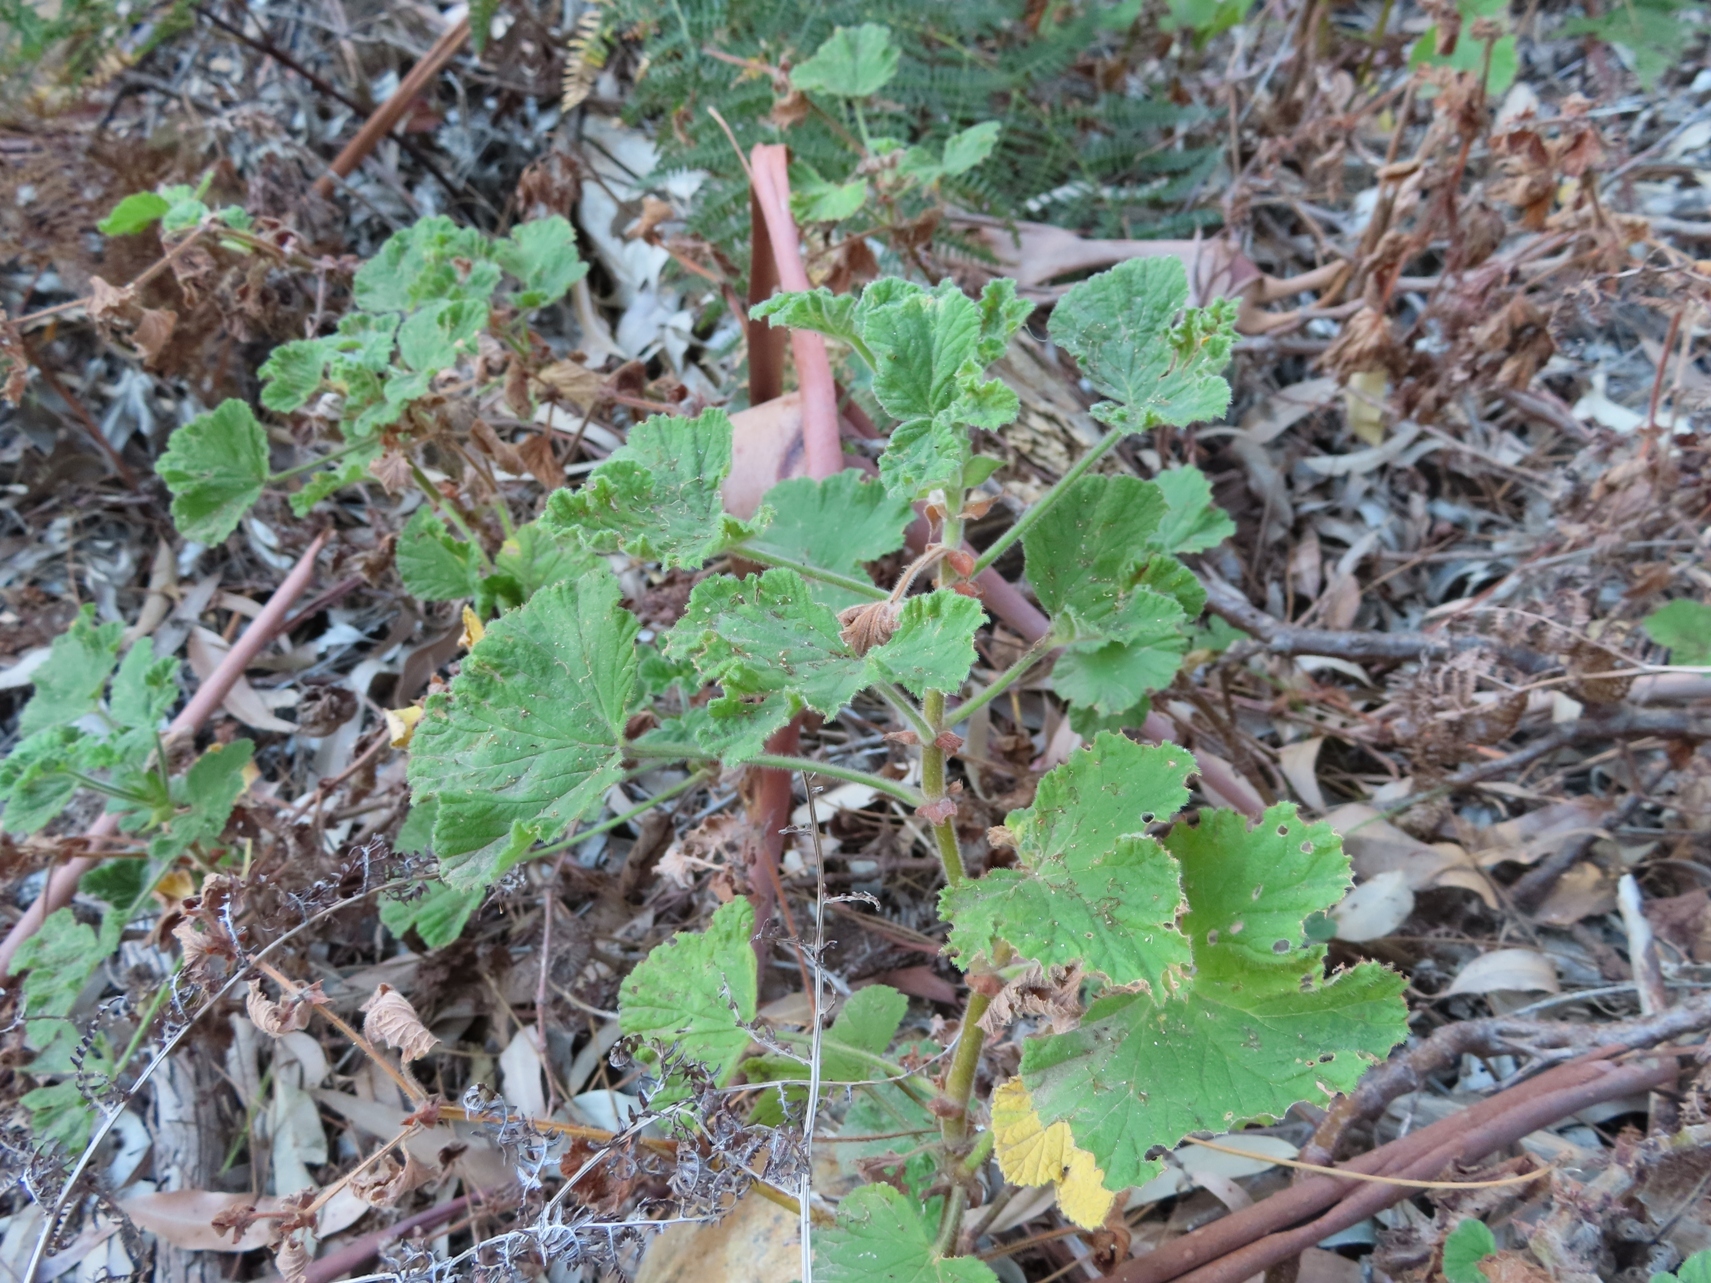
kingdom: Plantae
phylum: Tracheophyta
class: Magnoliopsida
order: Geraniales
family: Geraniaceae
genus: Pelargonium
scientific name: Pelargonium vitifolium
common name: Grapeleaf geranium
